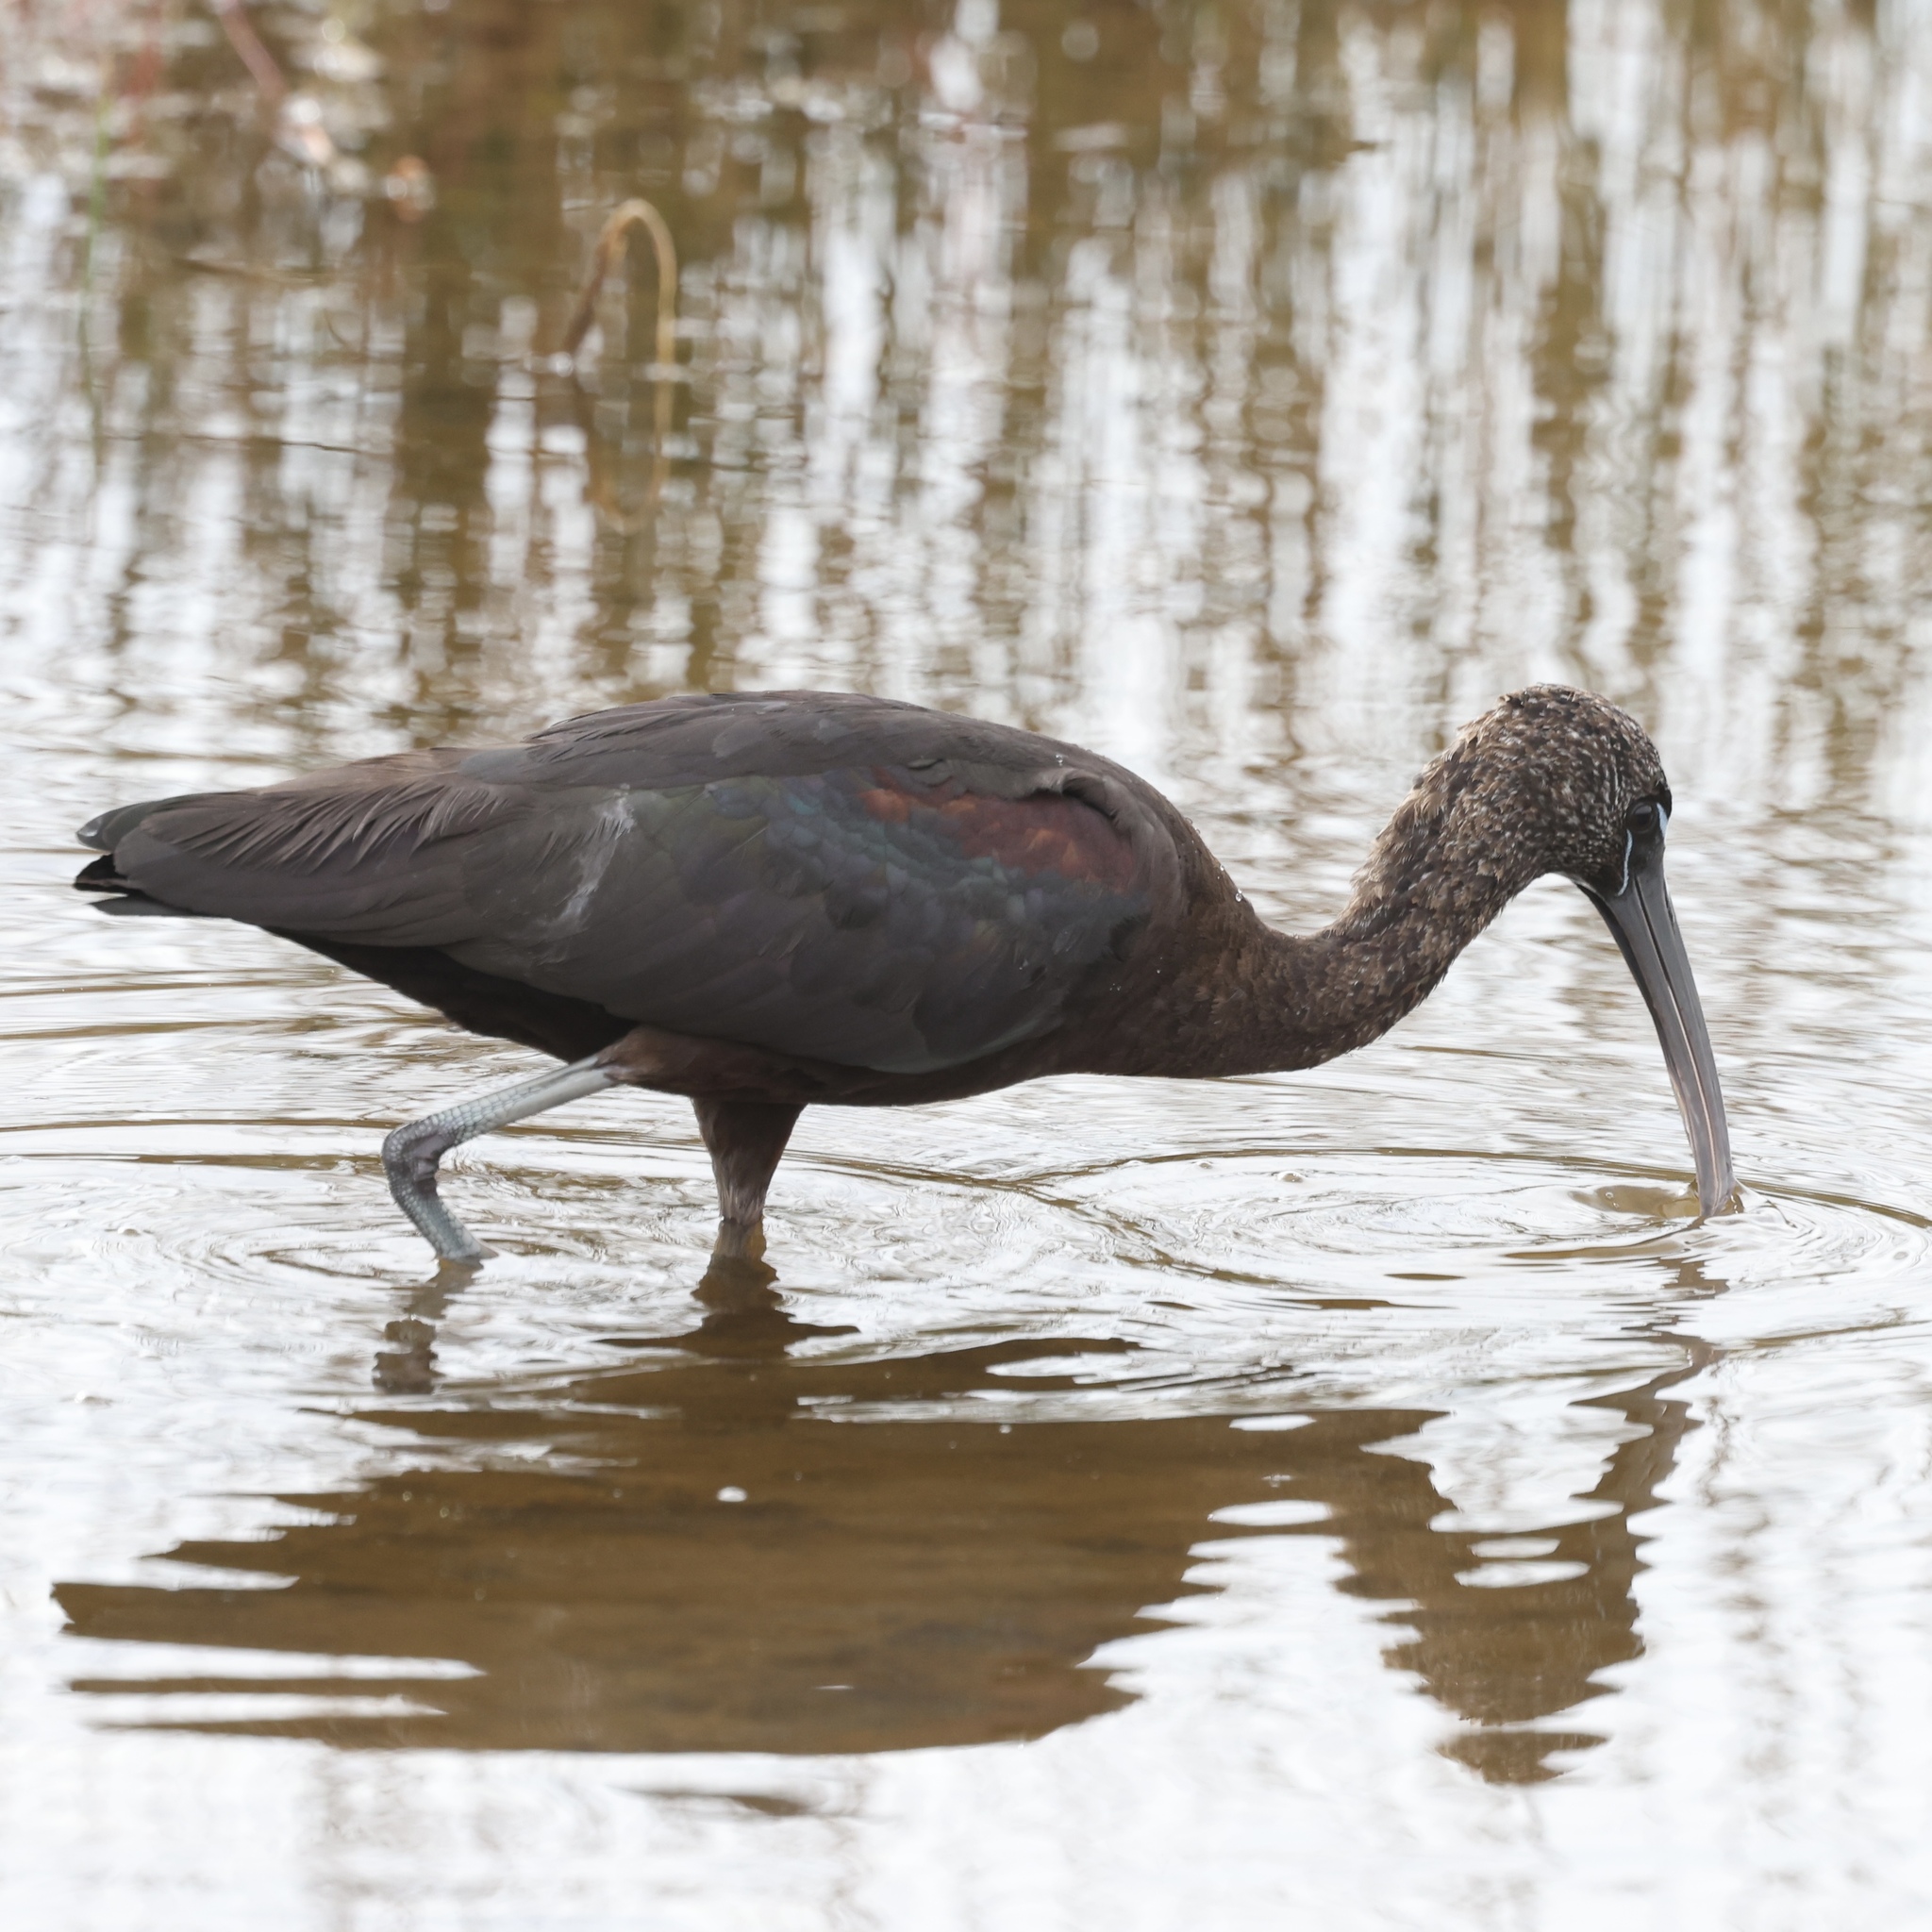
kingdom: Animalia
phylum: Chordata
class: Aves
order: Pelecaniformes
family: Threskiornithidae
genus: Plegadis
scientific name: Plegadis falcinellus
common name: Glossy ibis
